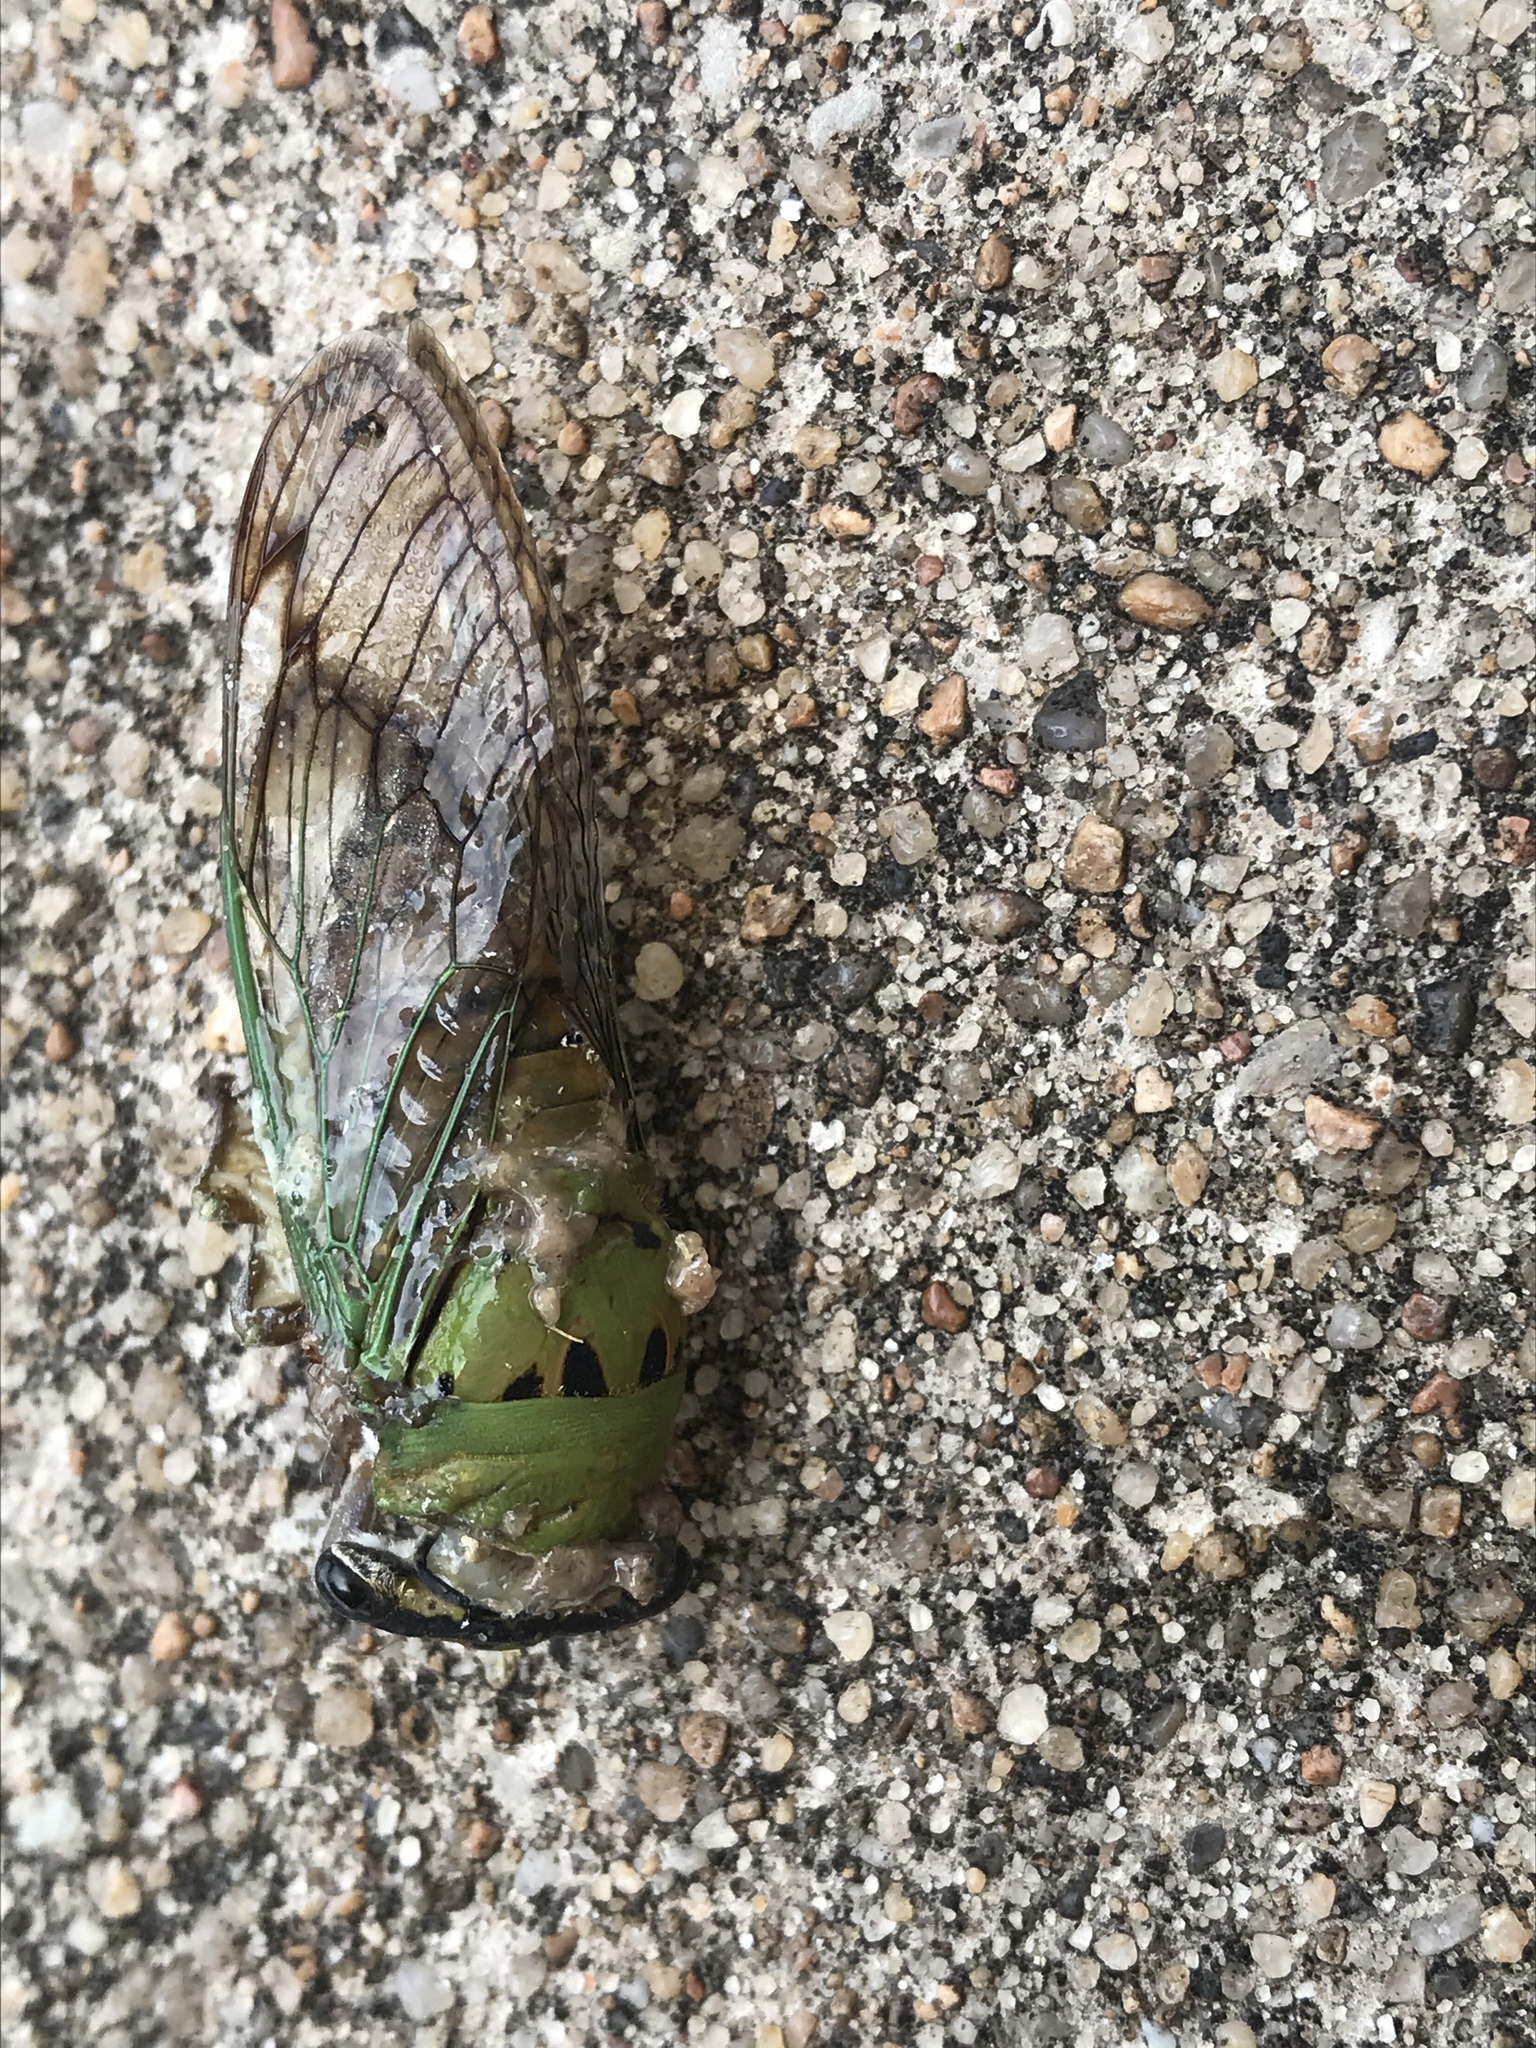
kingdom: Animalia
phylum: Arthropoda
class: Insecta
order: Hemiptera
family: Cicadidae
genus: Neotibicen
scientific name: Neotibicen superbus
